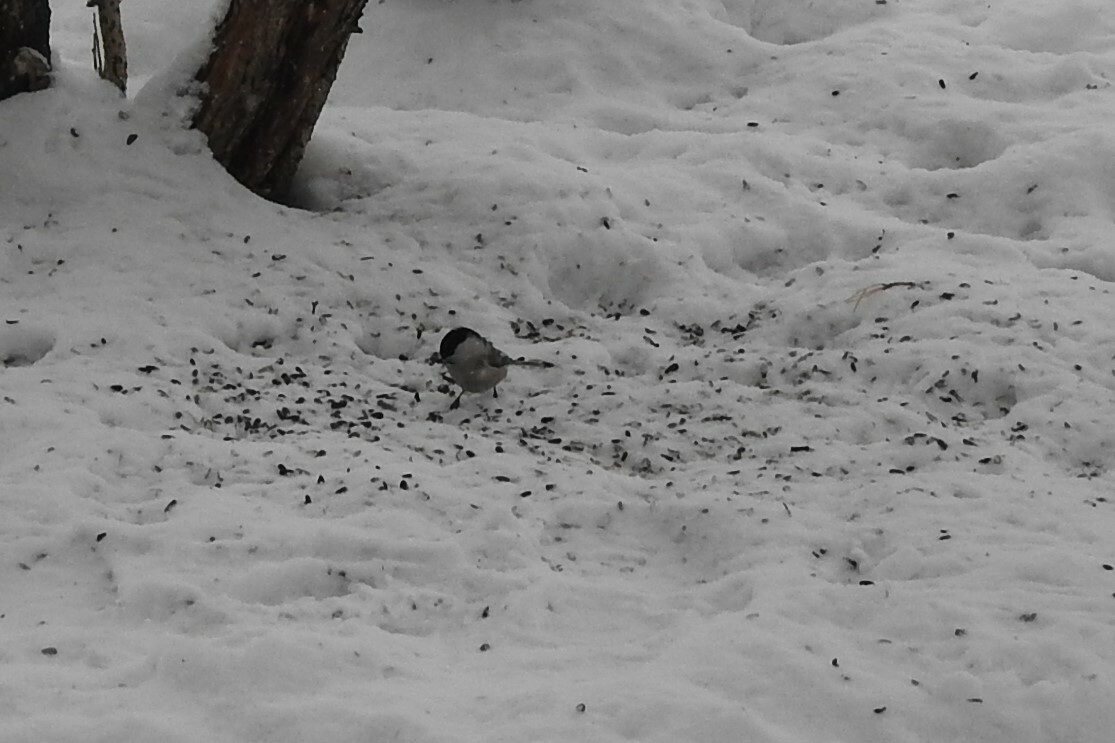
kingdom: Animalia
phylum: Chordata
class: Aves
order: Passeriformes
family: Paridae
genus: Poecile
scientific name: Poecile montanus
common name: Willow tit
